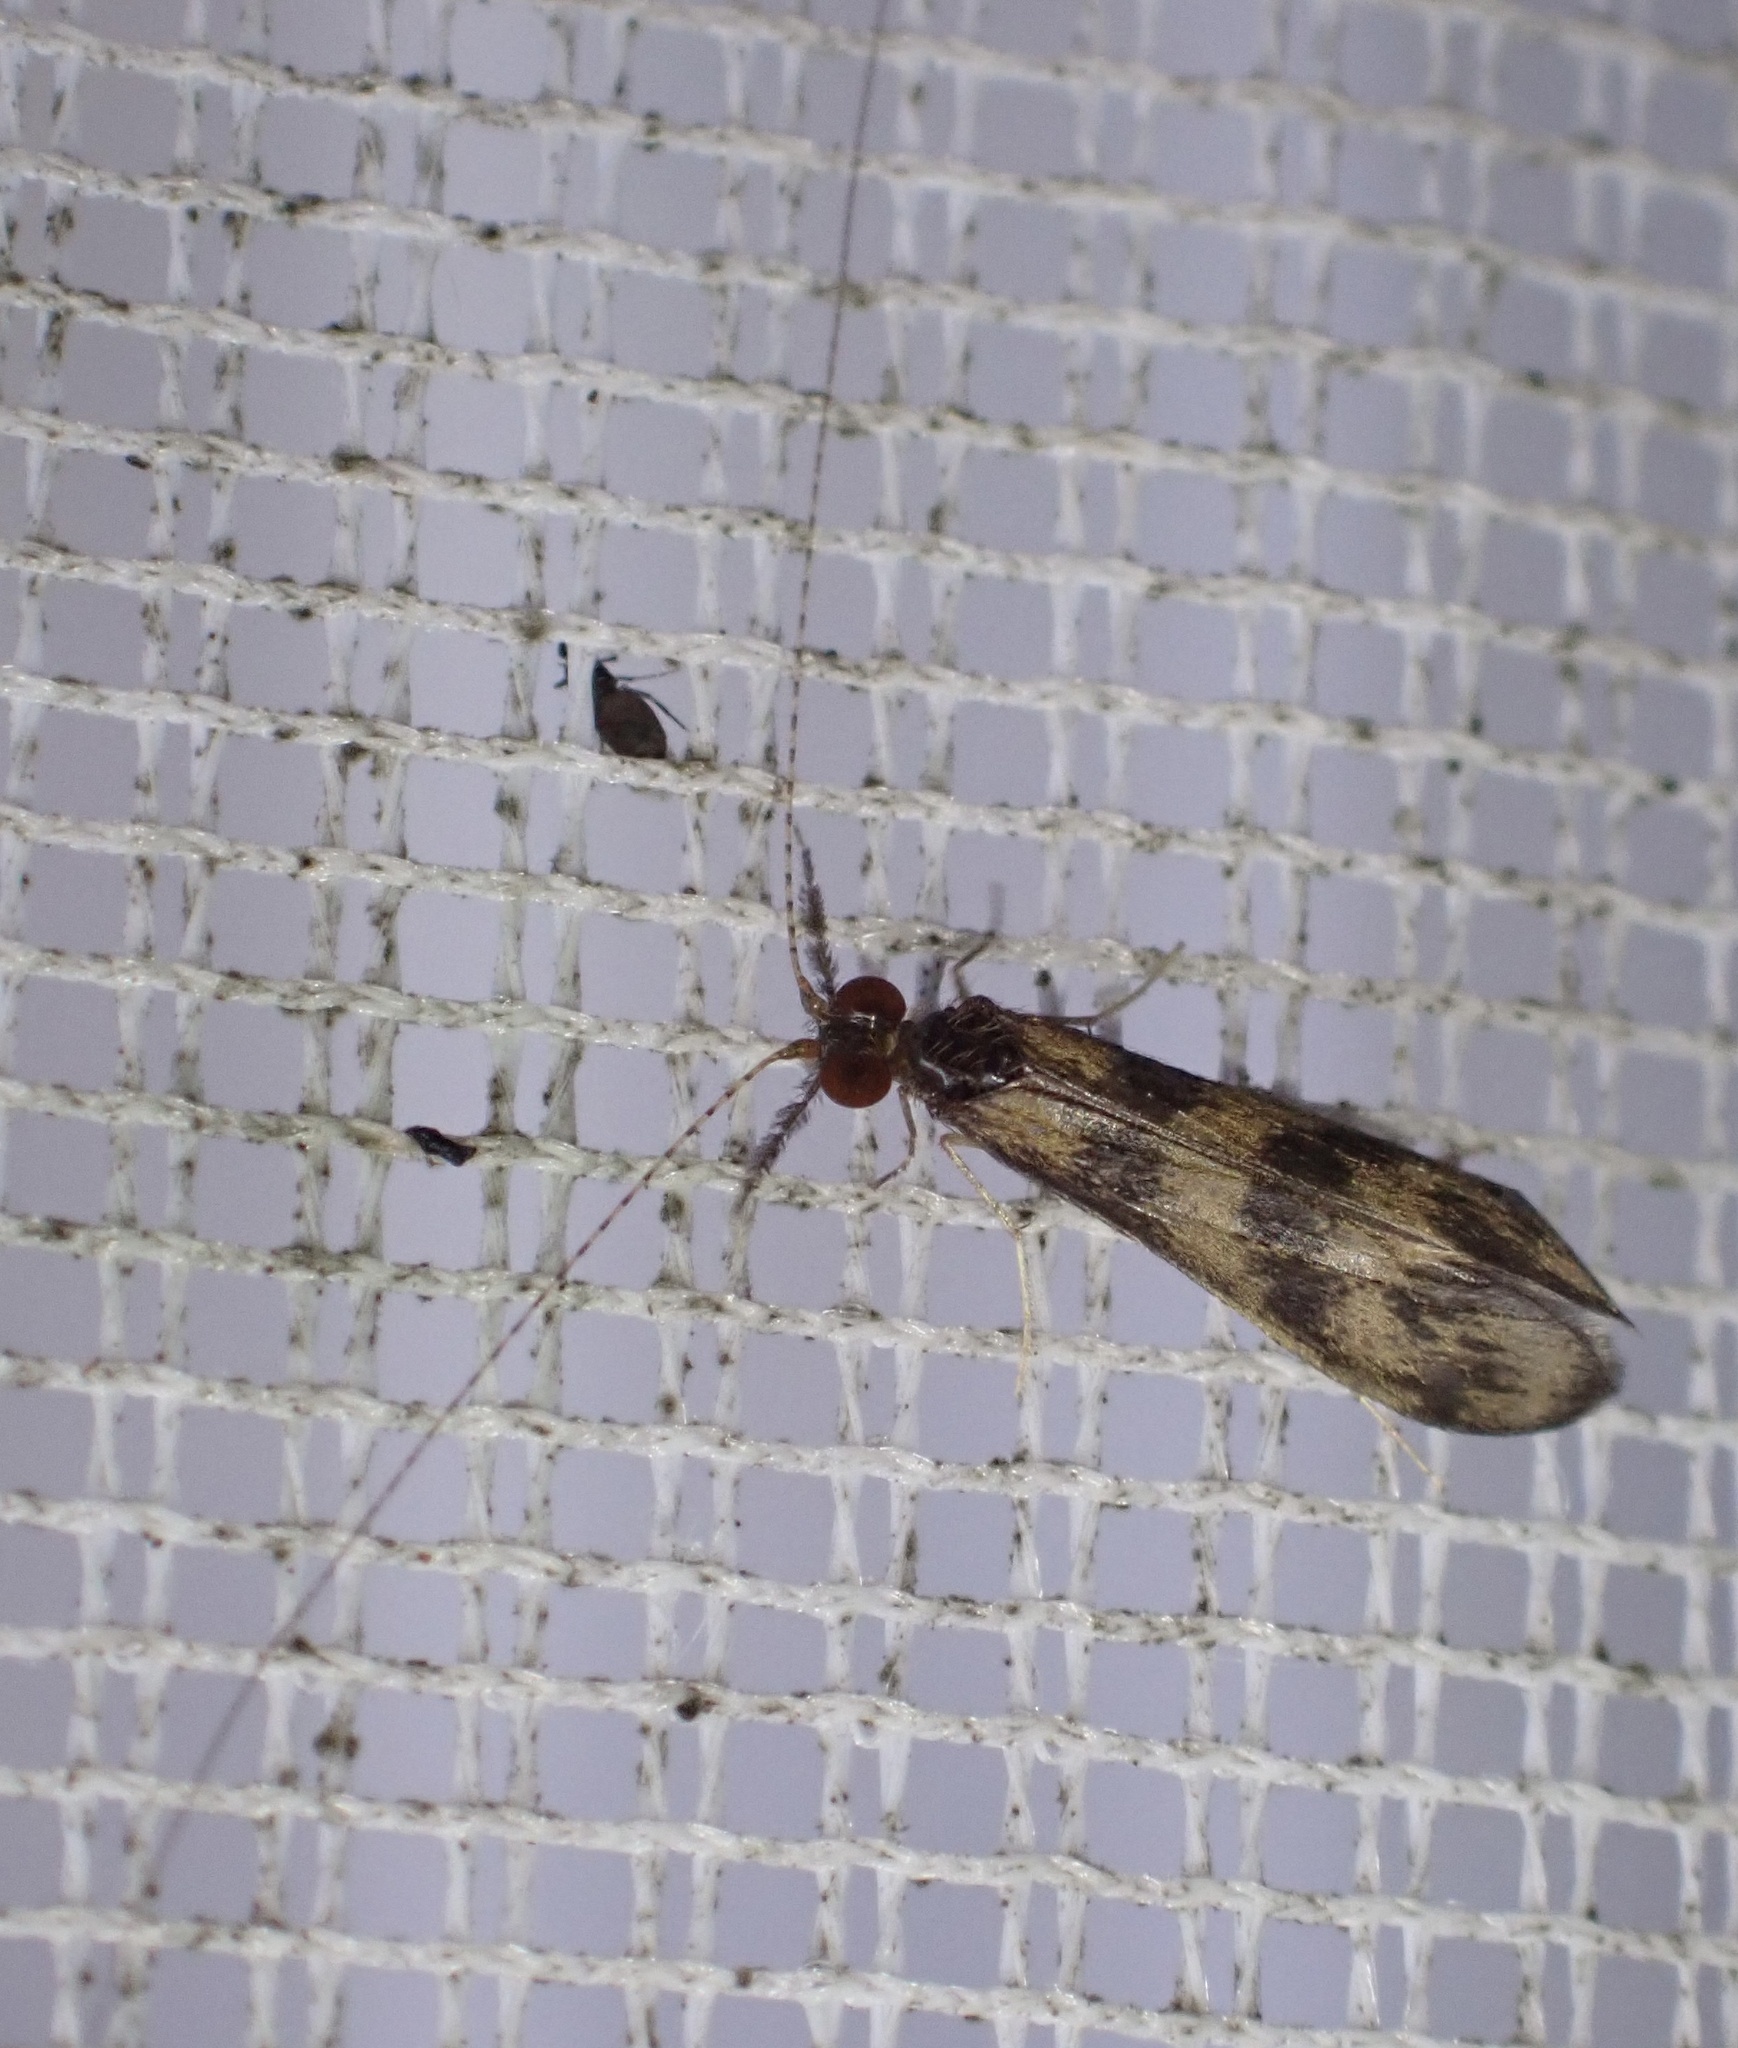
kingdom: Animalia
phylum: Arthropoda
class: Insecta
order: Trichoptera
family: Leptoceridae
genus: Mystacides
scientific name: Mystacides longicornis
